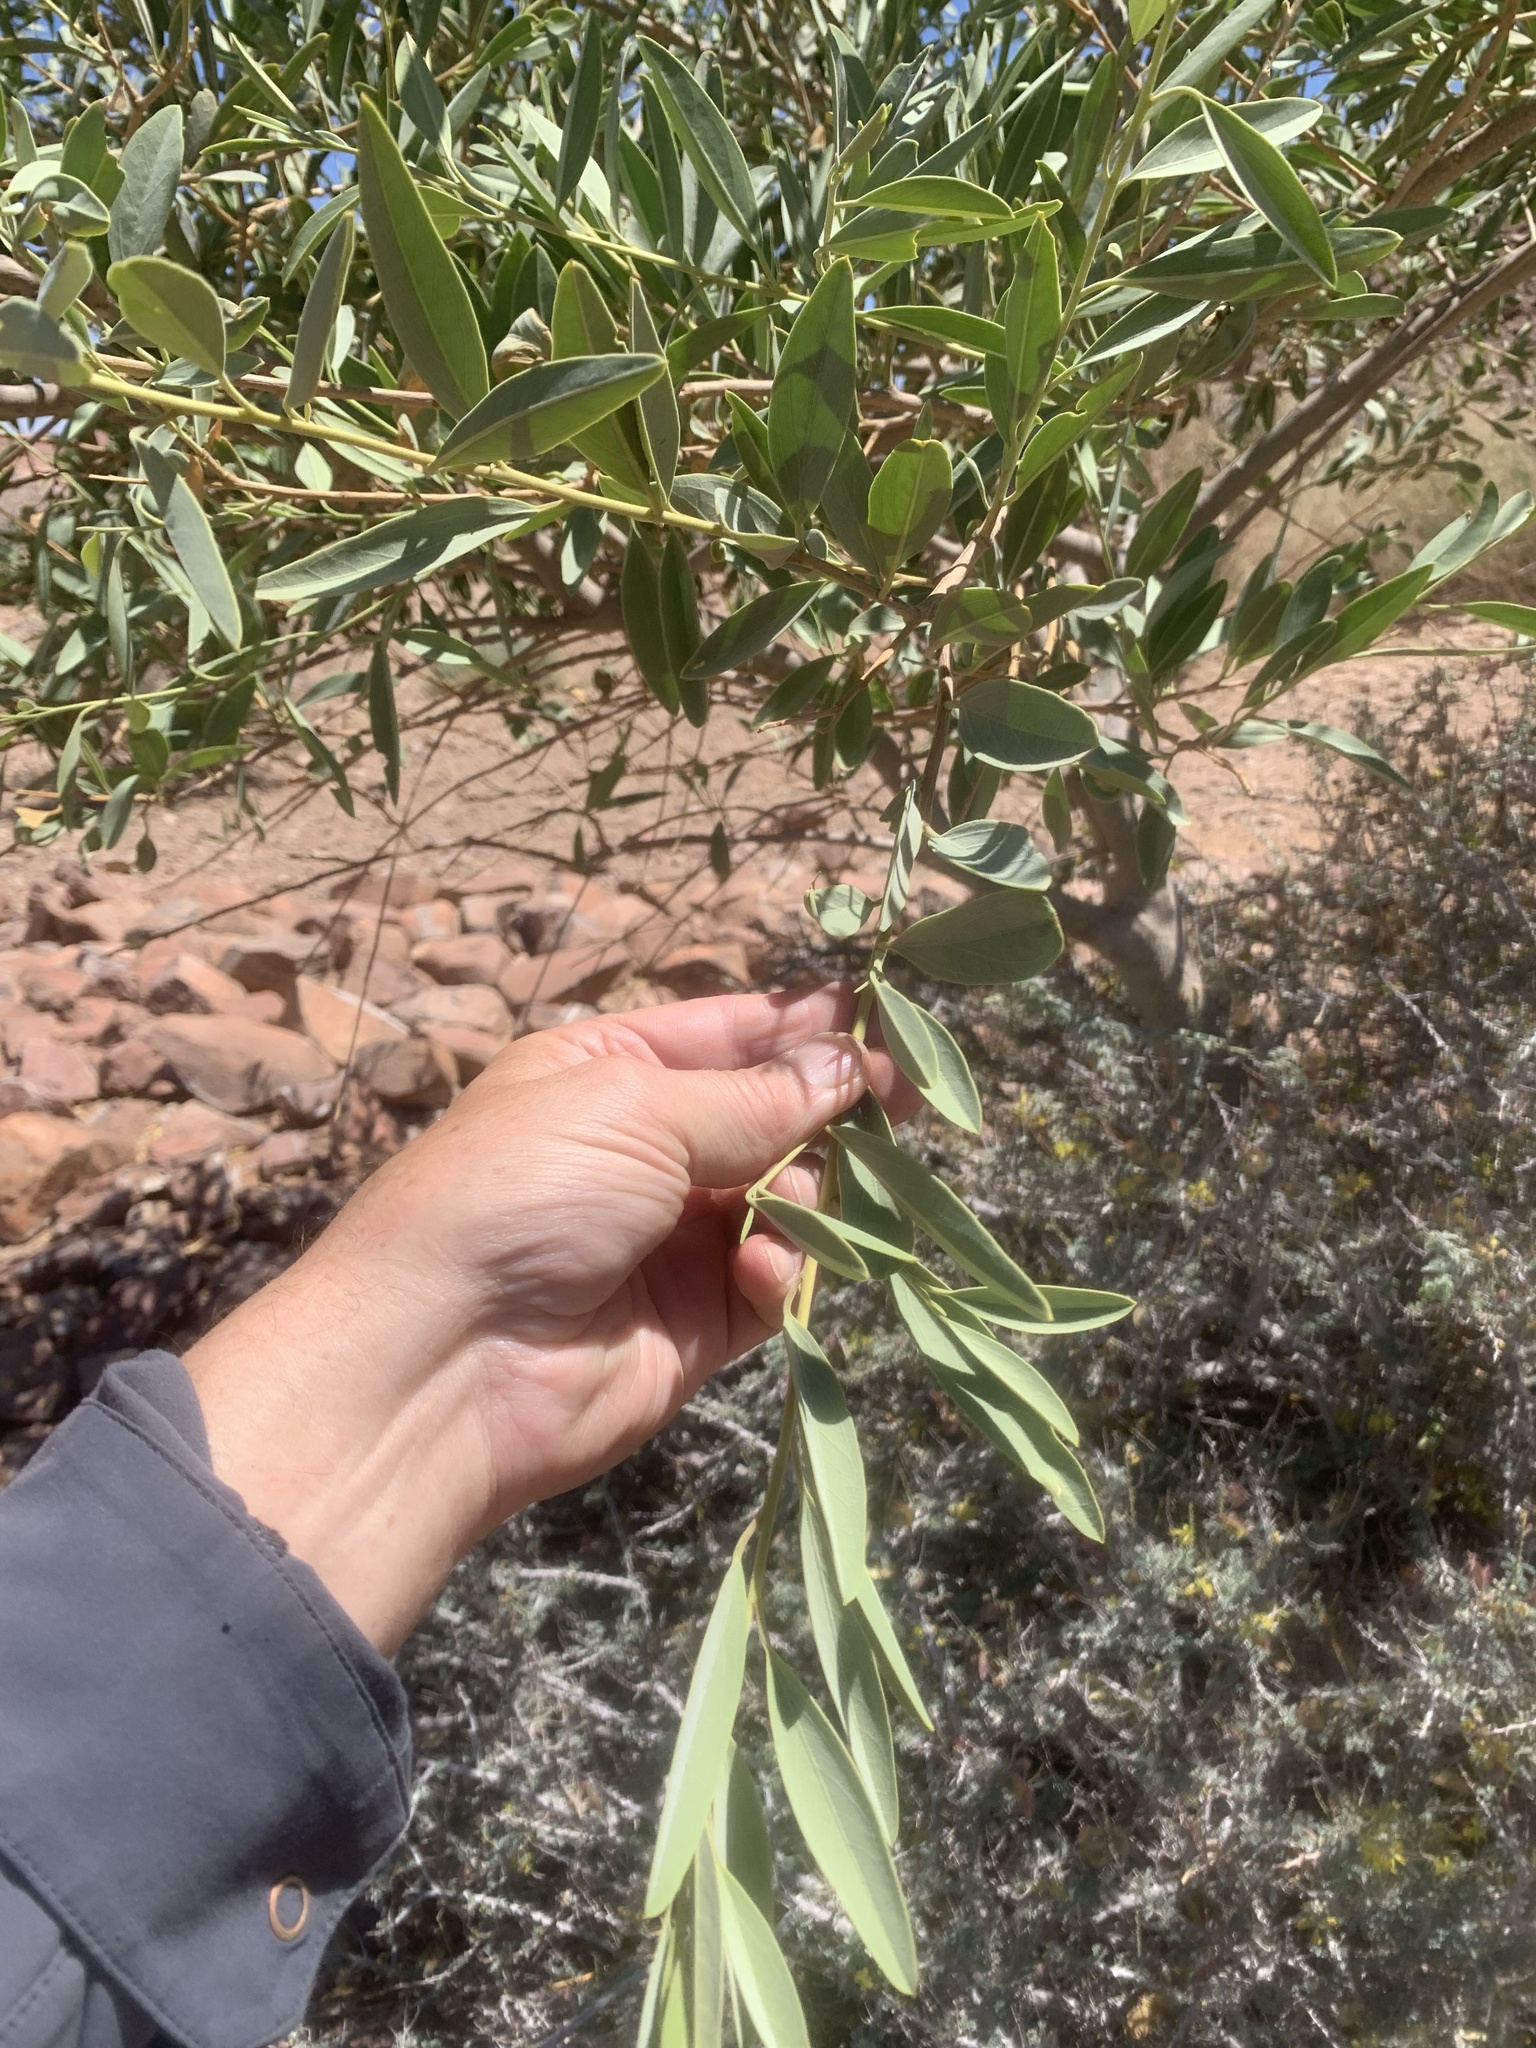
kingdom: Plantae
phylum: Tracheophyta
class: Magnoliopsida
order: Brassicales
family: Capparaceae
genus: Maerua
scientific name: Maerua schinzii
